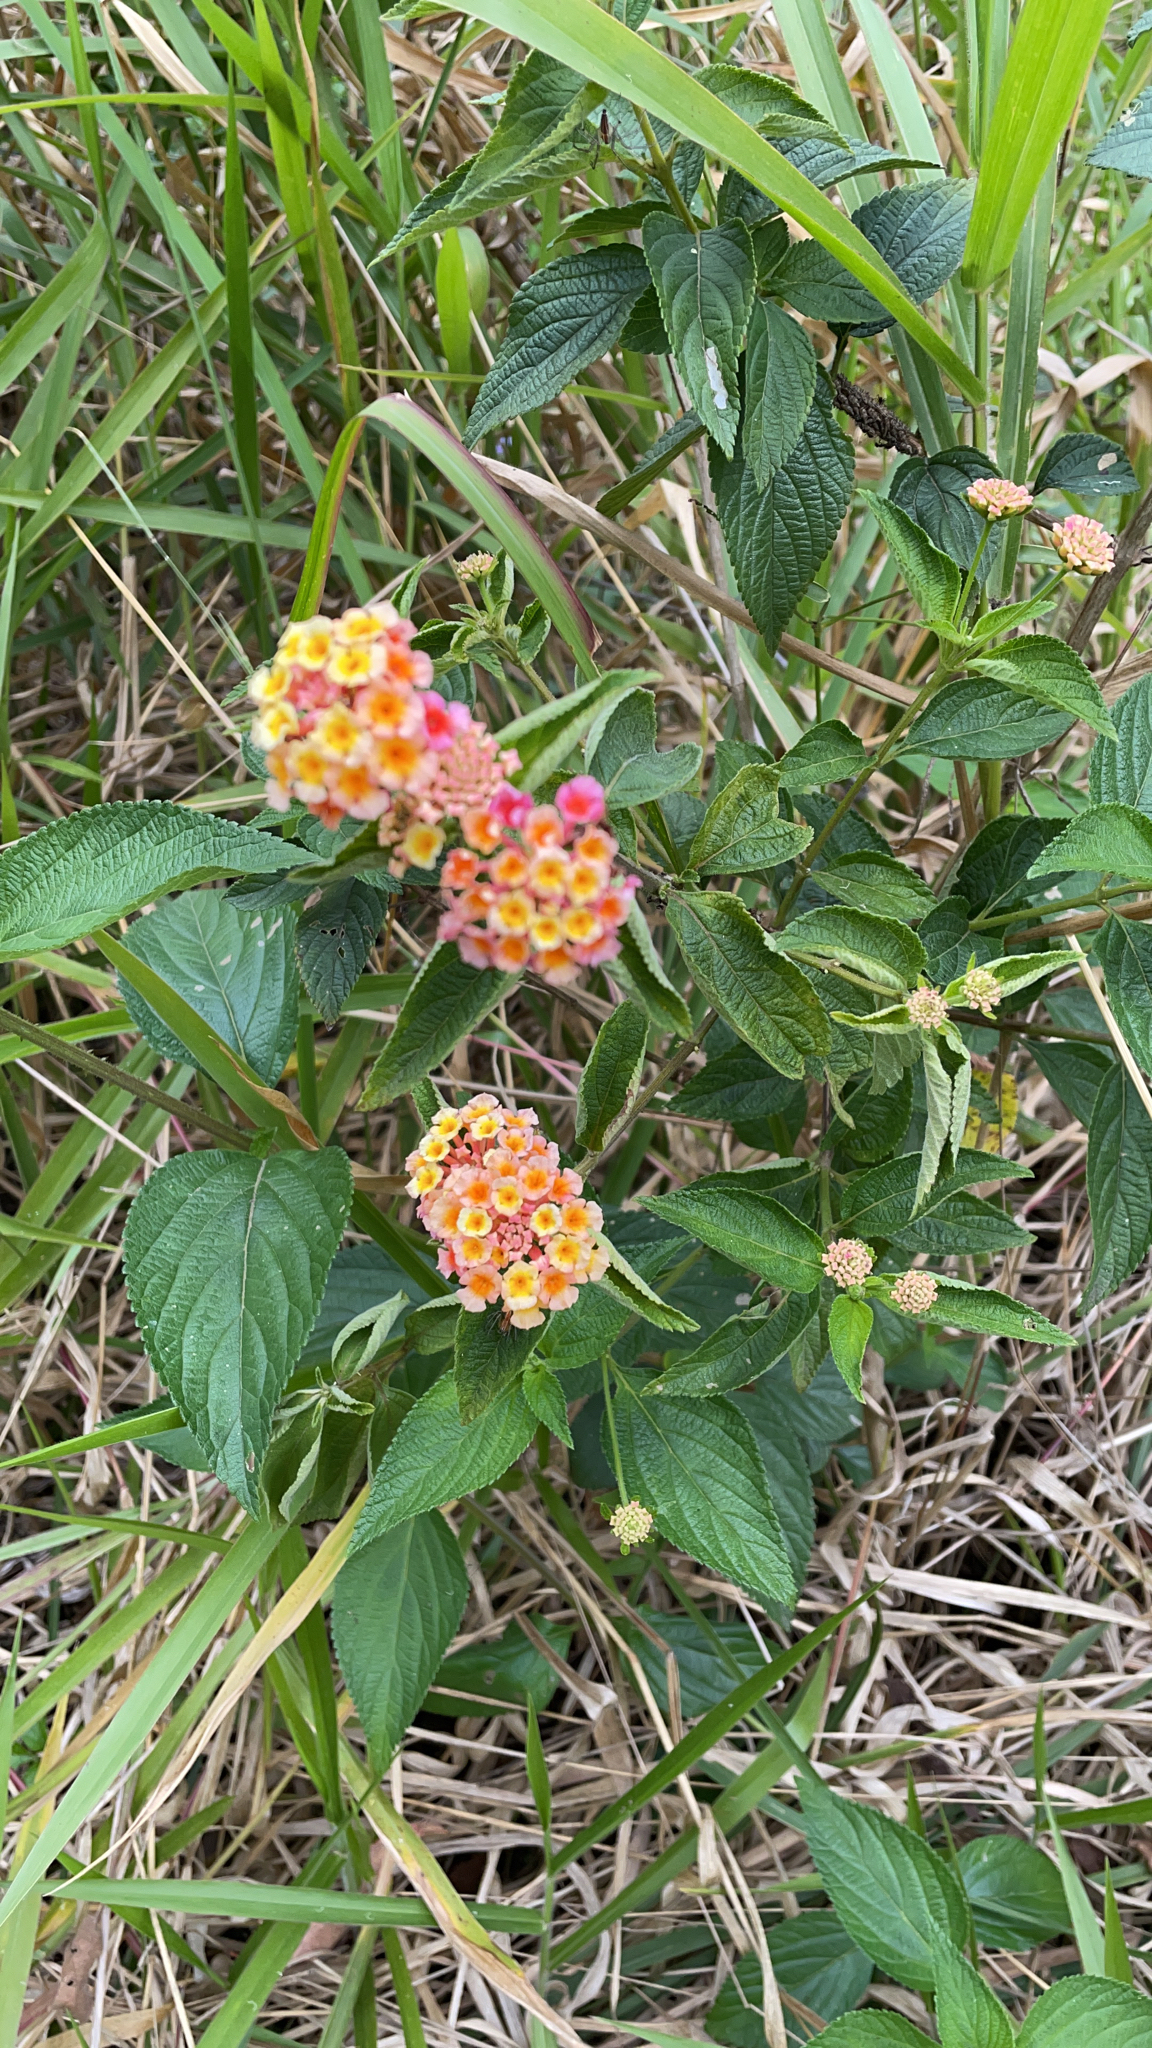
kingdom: Plantae
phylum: Tracheophyta
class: Magnoliopsida
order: Lamiales
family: Verbenaceae
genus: Lantana
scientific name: Lantana camara
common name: Lantana
